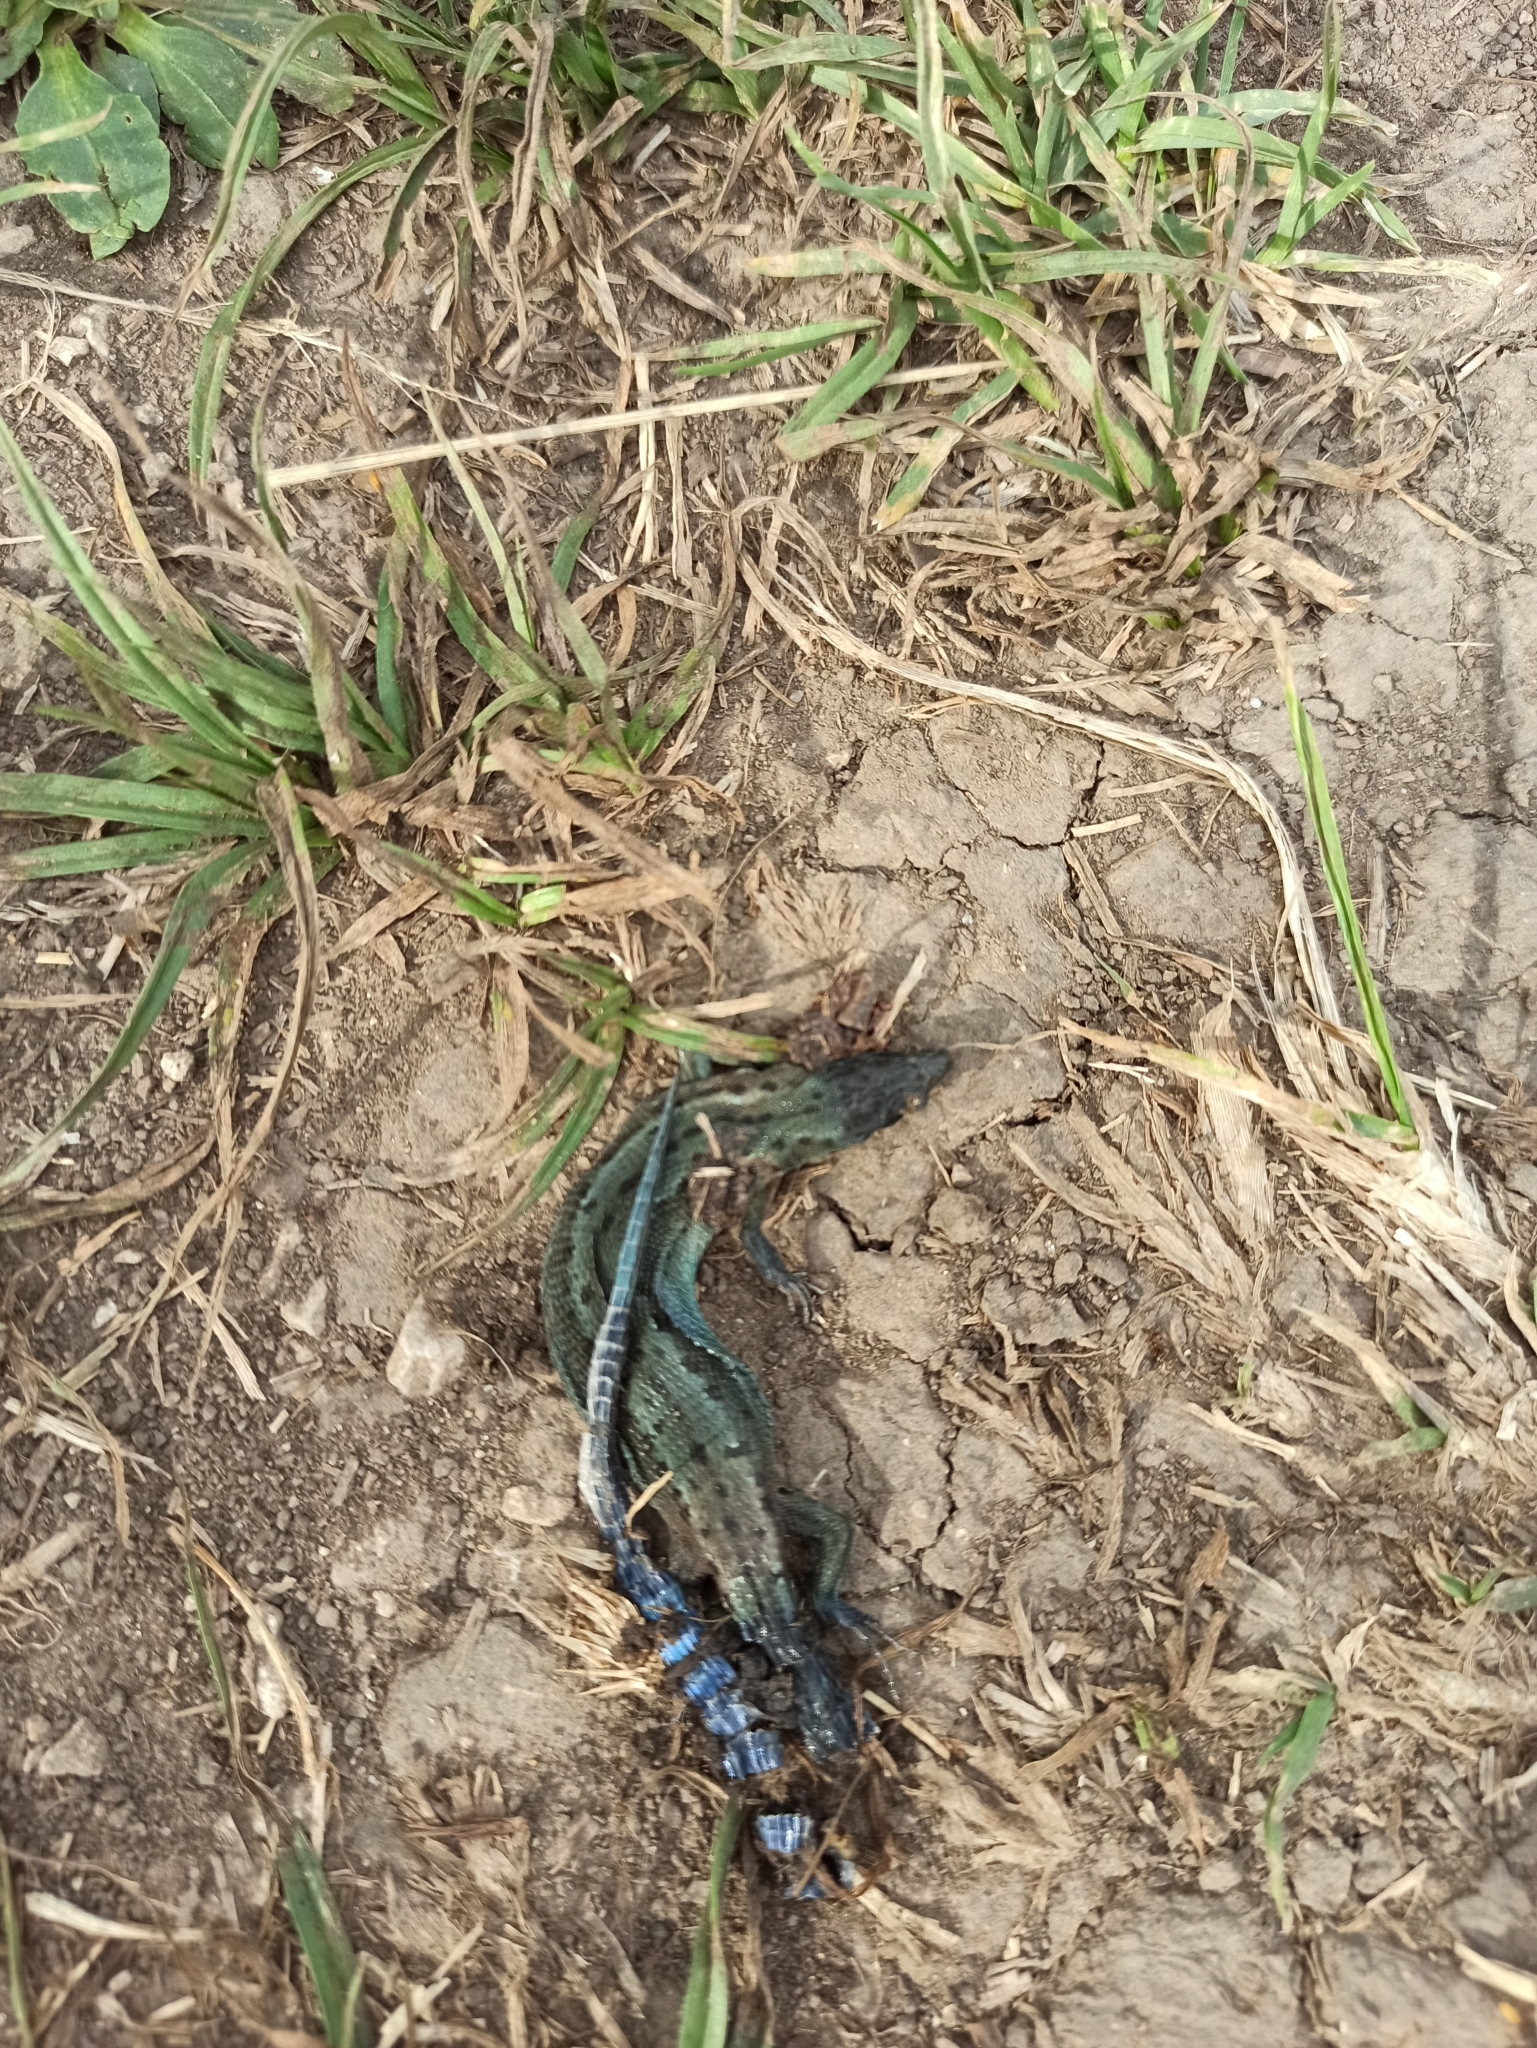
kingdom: Animalia
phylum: Chordata
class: Squamata
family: Lacertidae
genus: Zootoca
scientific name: Zootoca vivipara
